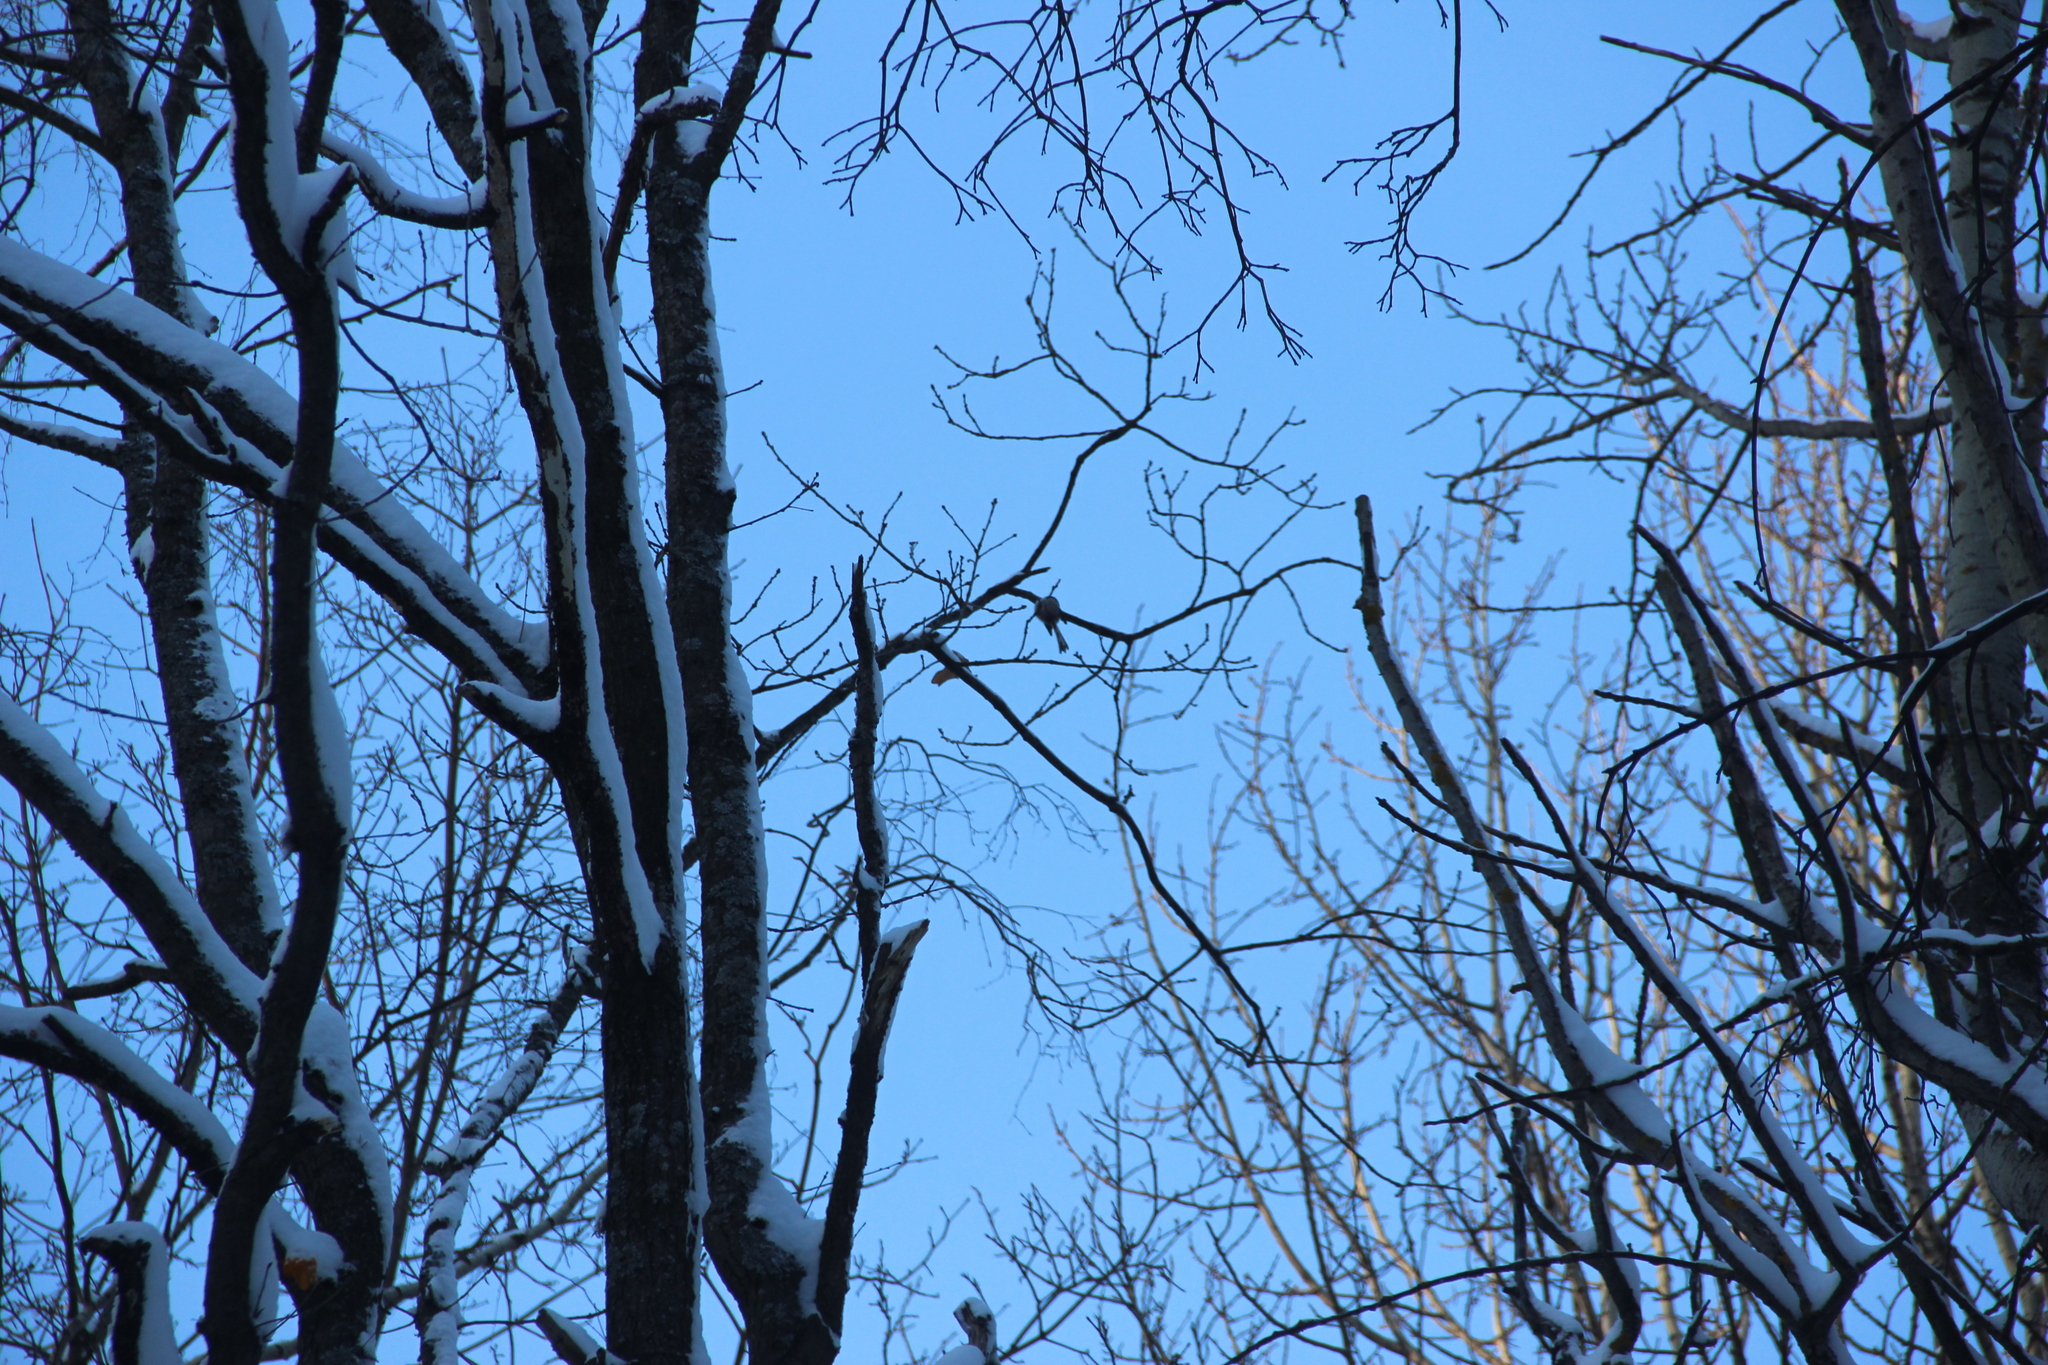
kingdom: Animalia
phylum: Chordata
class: Aves
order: Passeriformes
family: Aegithalidae
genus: Aegithalos
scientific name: Aegithalos caudatus
